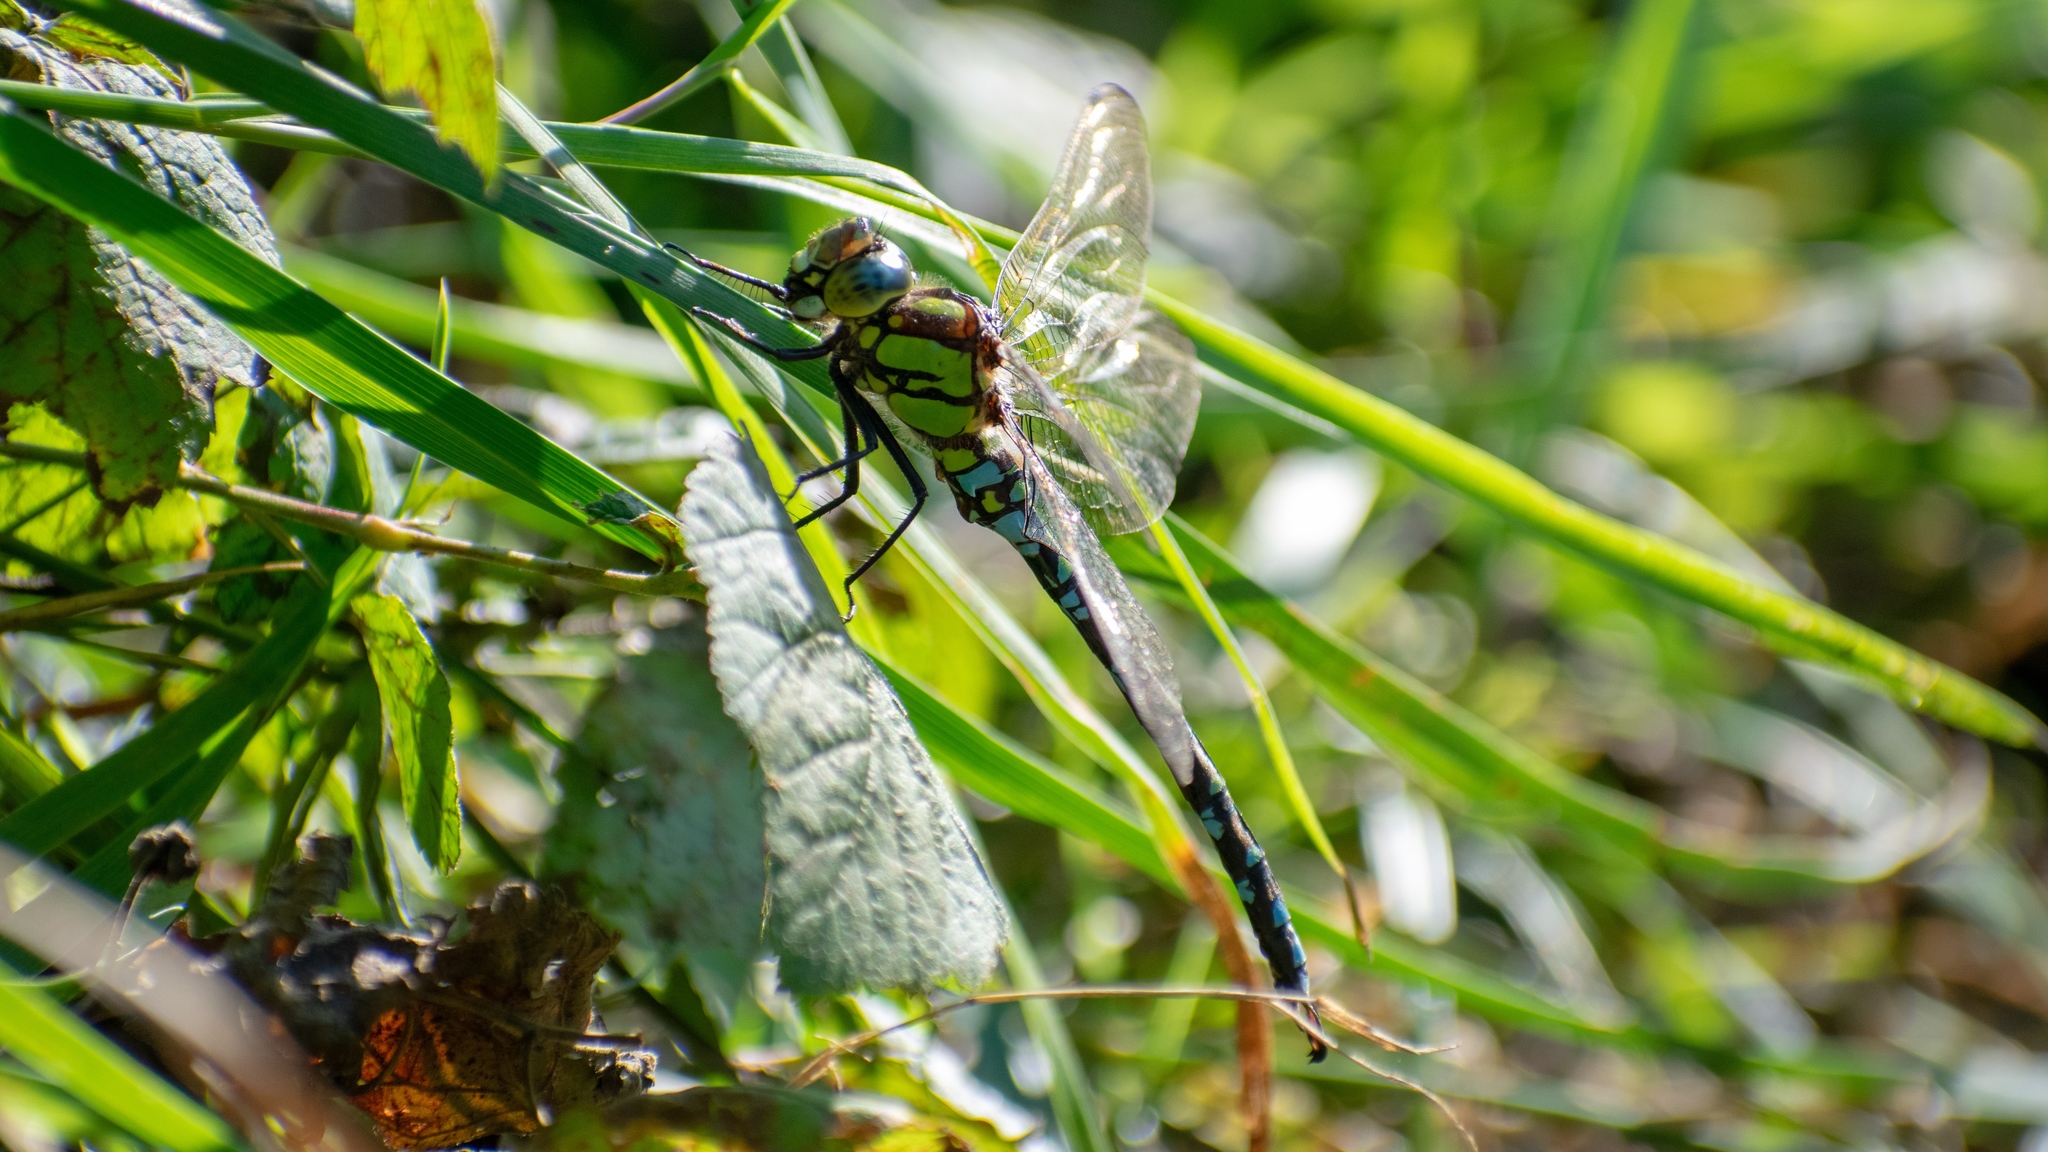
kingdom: Animalia
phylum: Arthropoda
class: Insecta
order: Odonata
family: Aeshnidae
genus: Aeshna
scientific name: Aeshna cyanea
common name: Southern hawker
